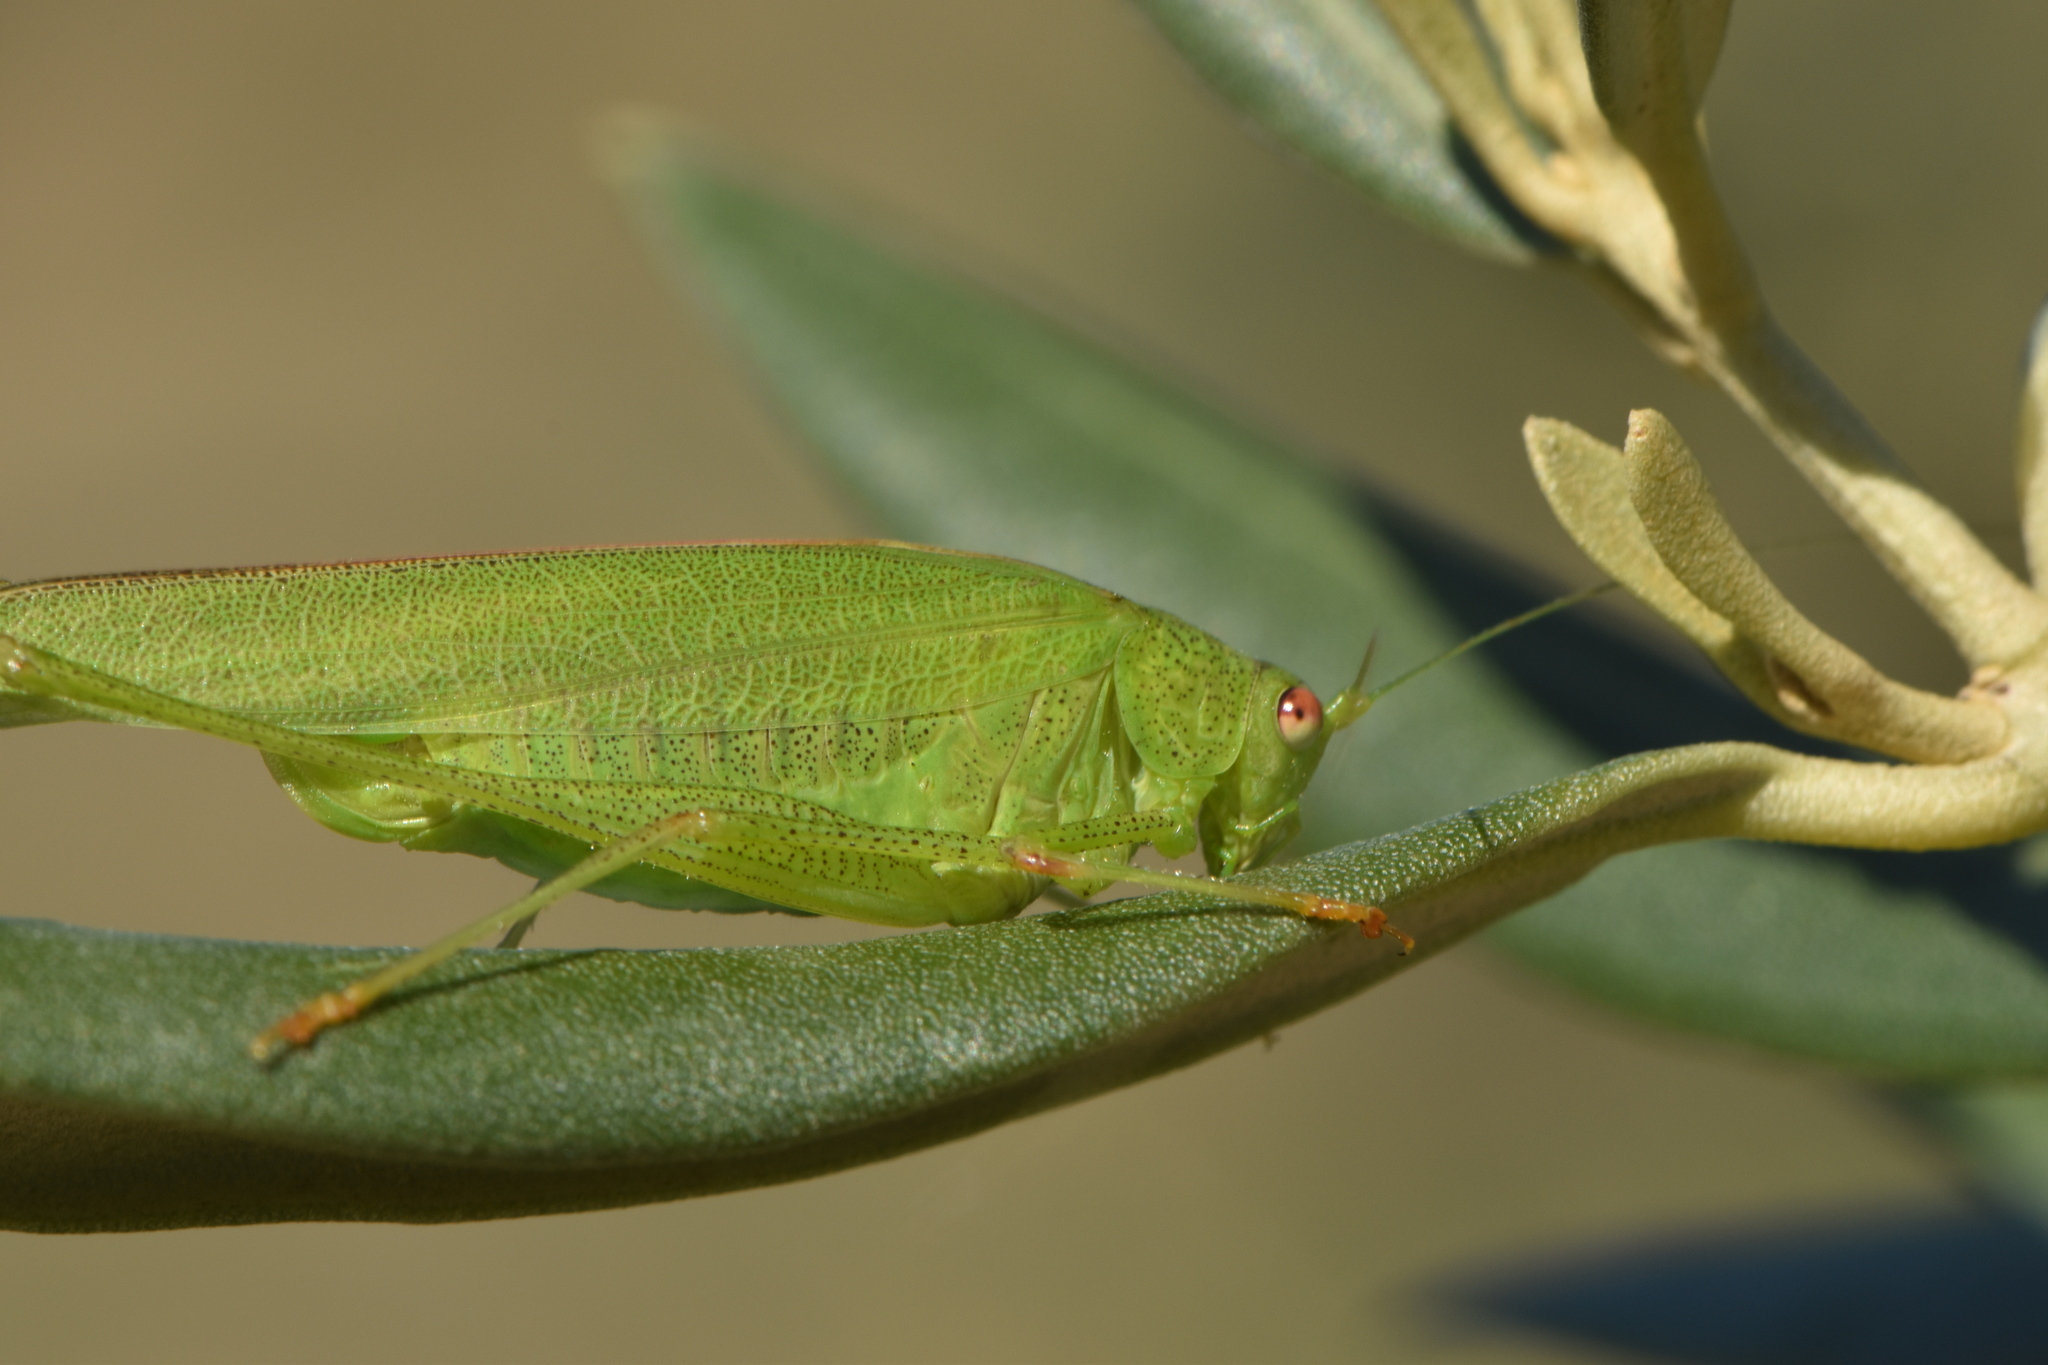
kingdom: Animalia
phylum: Arthropoda
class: Insecta
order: Orthoptera
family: Tettigoniidae
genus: Phaneroptera
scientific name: Phaneroptera nana
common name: Southern sickle bush-cricket
